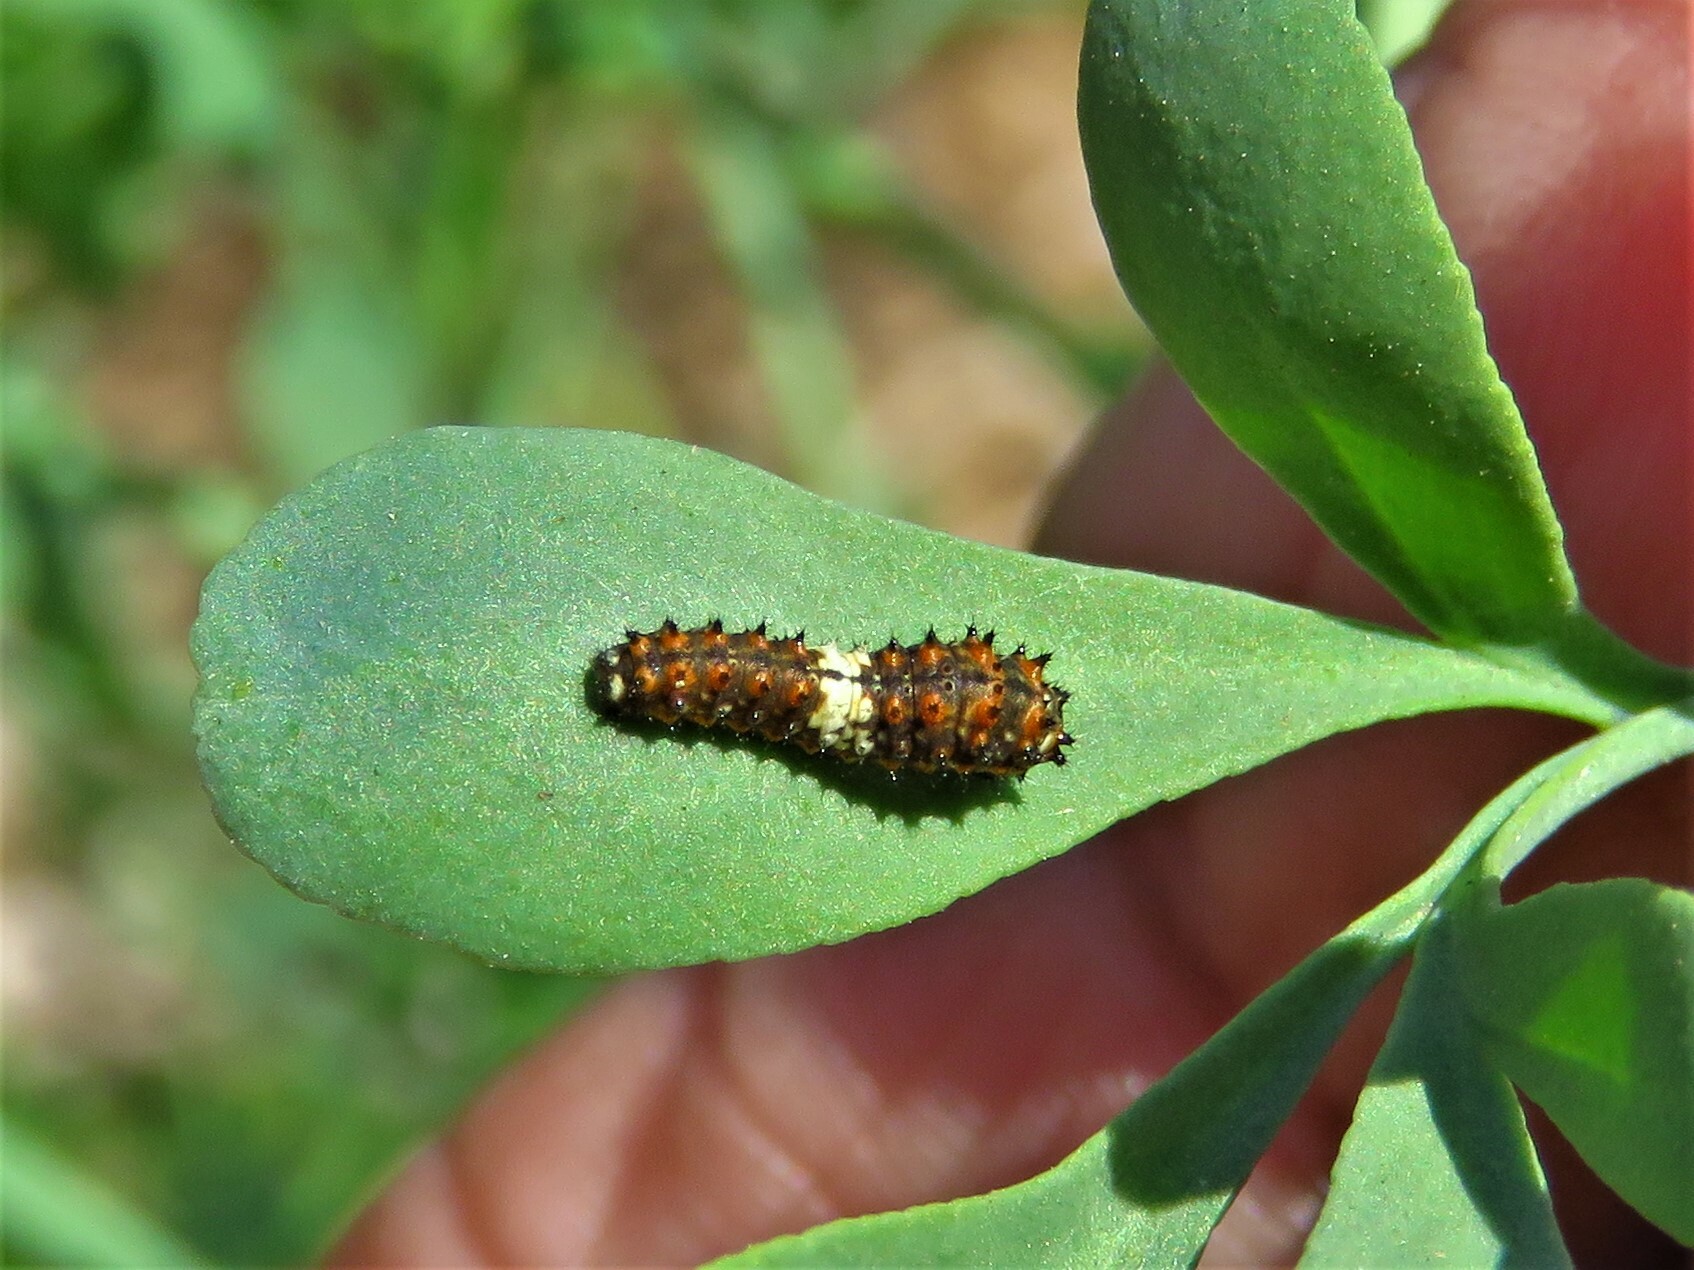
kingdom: Animalia
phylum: Arthropoda
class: Insecta
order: Lepidoptera
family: Papilionidae
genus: Papilio
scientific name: Papilio polyxenes
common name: Black swallowtail
